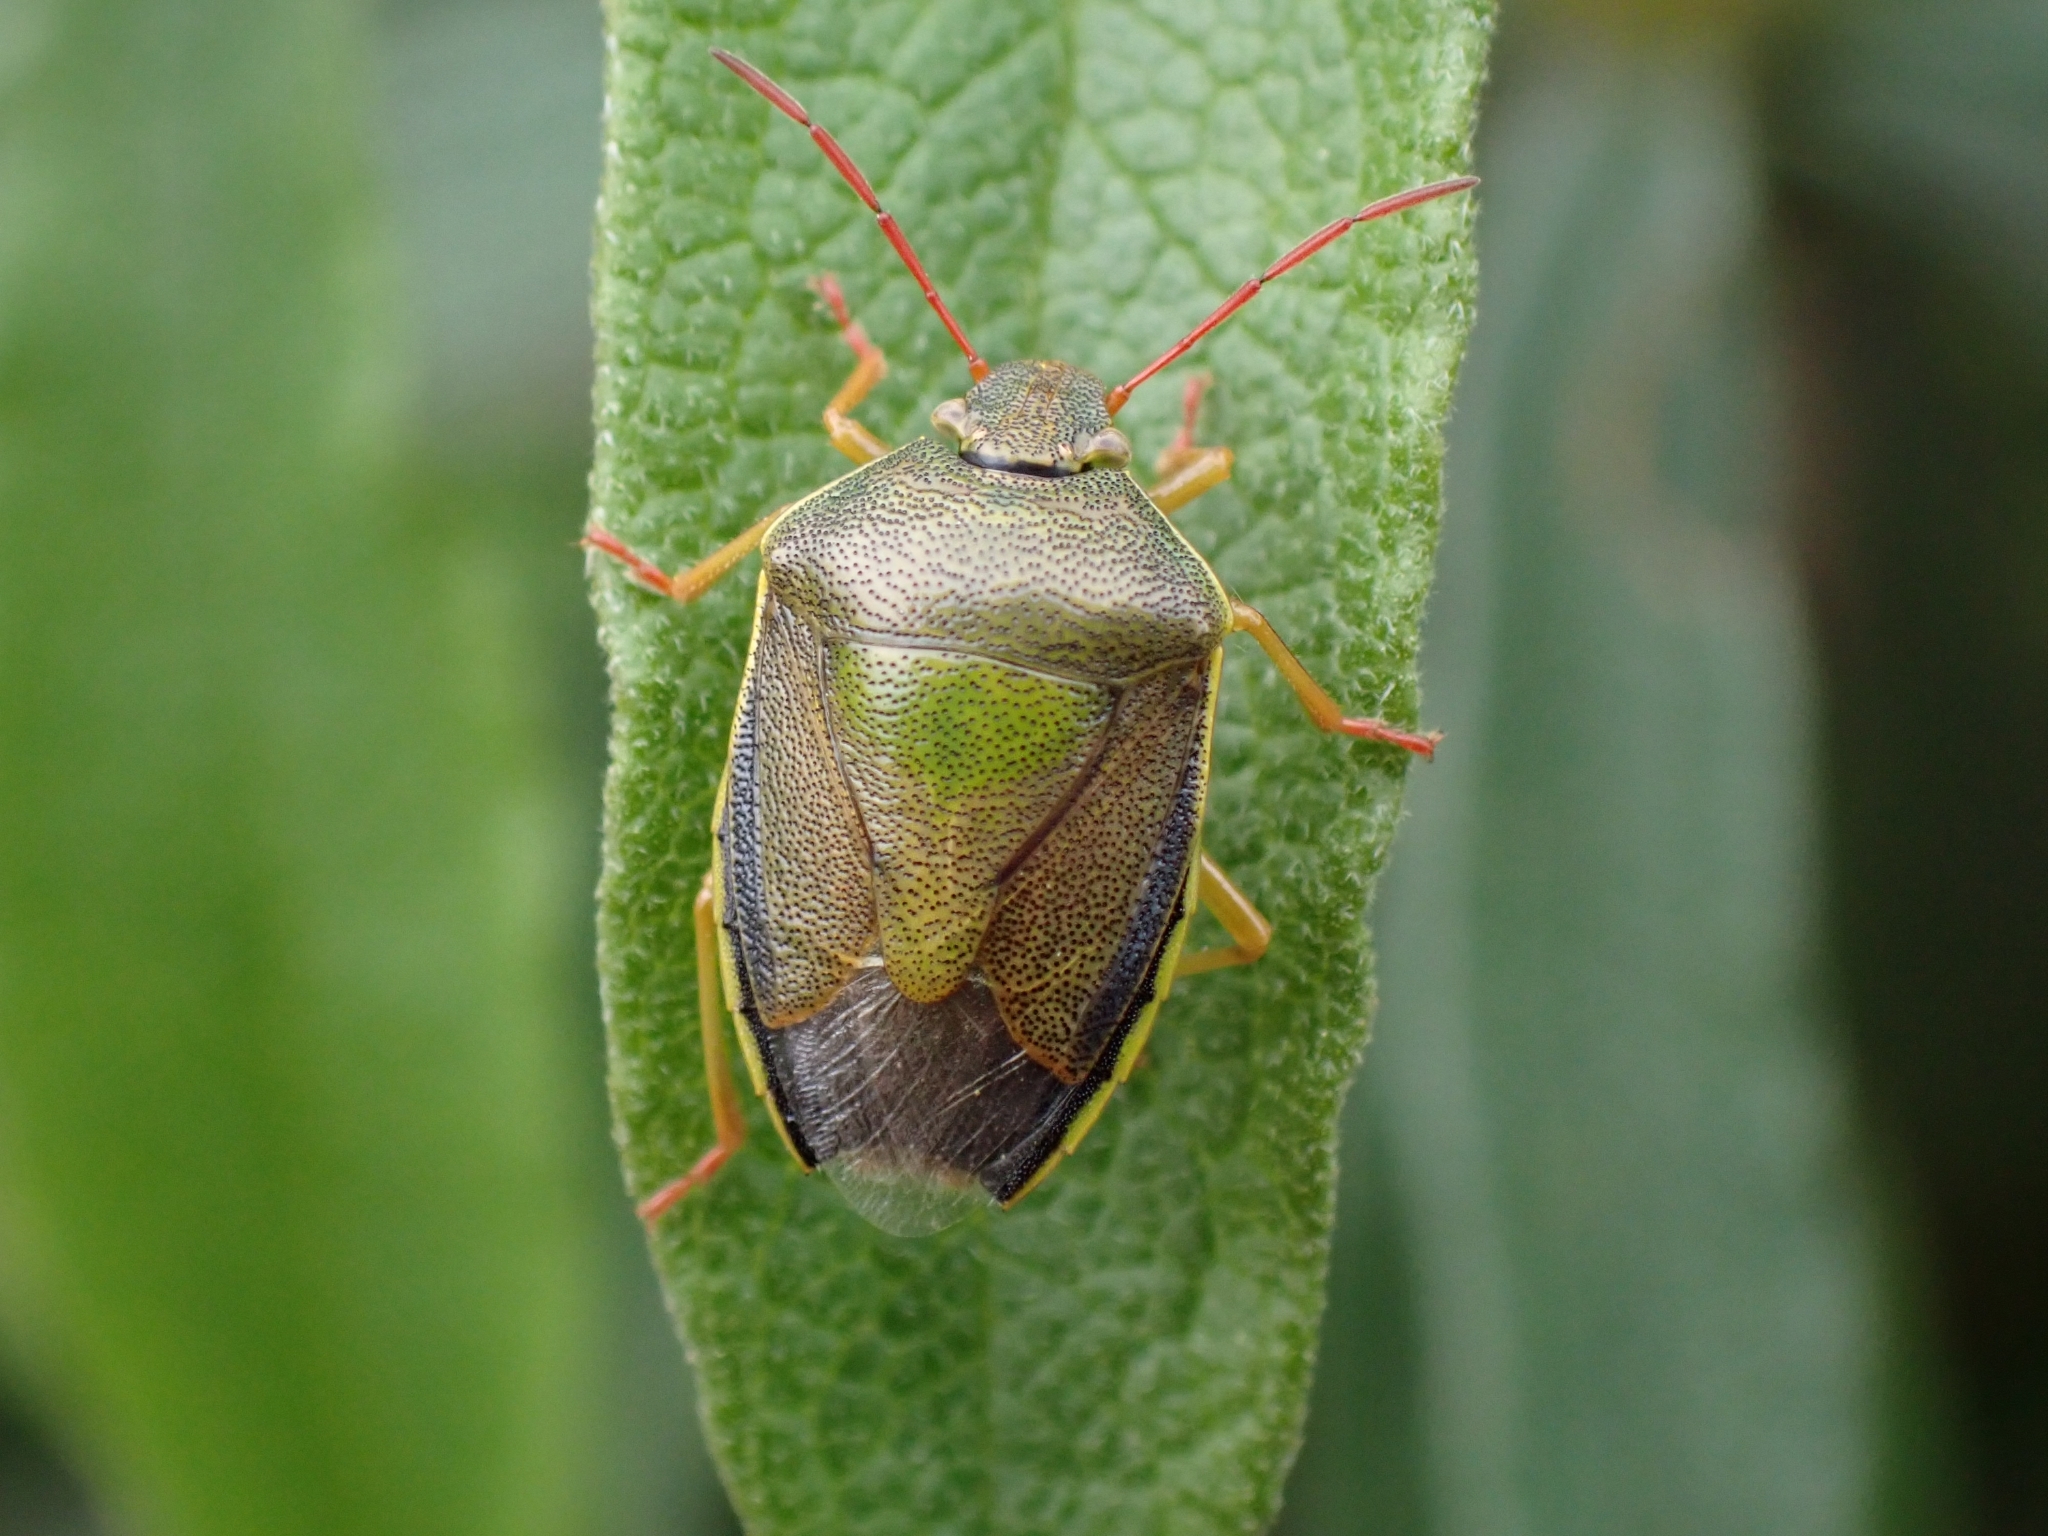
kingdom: Animalia
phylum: Arthropoda
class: Insecta
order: Hemiptera
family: Pentatomidae
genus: Piezodorus
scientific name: Piezodorus lituratus
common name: Stink bug
